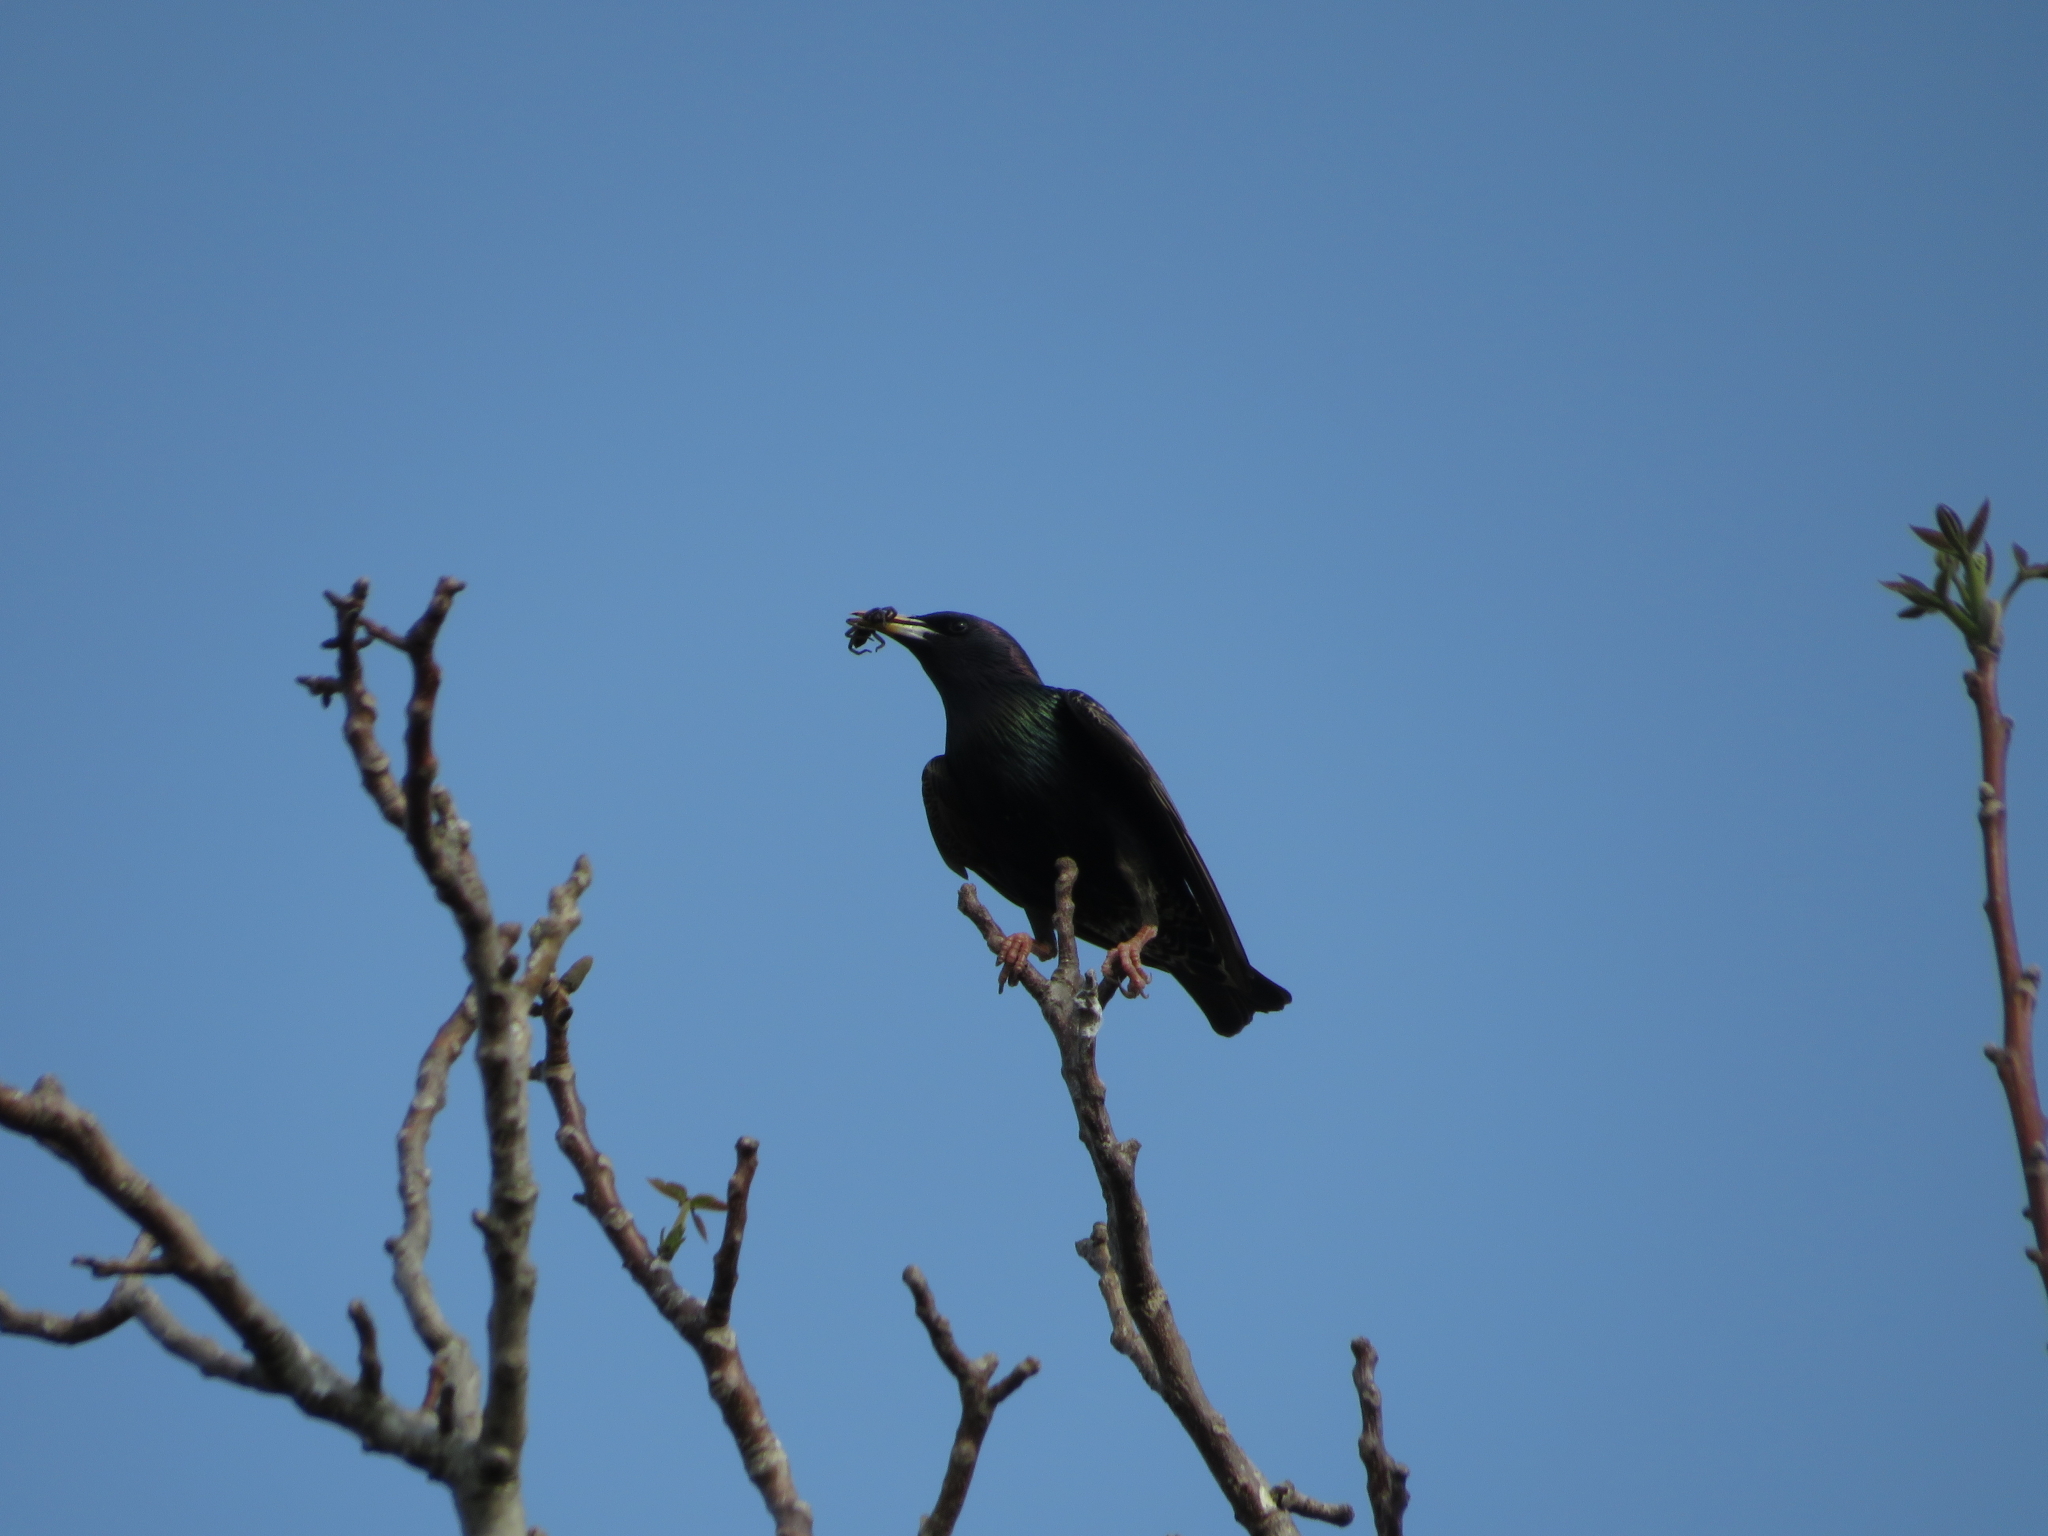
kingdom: Animalia
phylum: Chordata
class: Aves
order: Passeriformes
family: Sturnidae
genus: Sturnus
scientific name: Sturnus vulgaris
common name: Common starling
